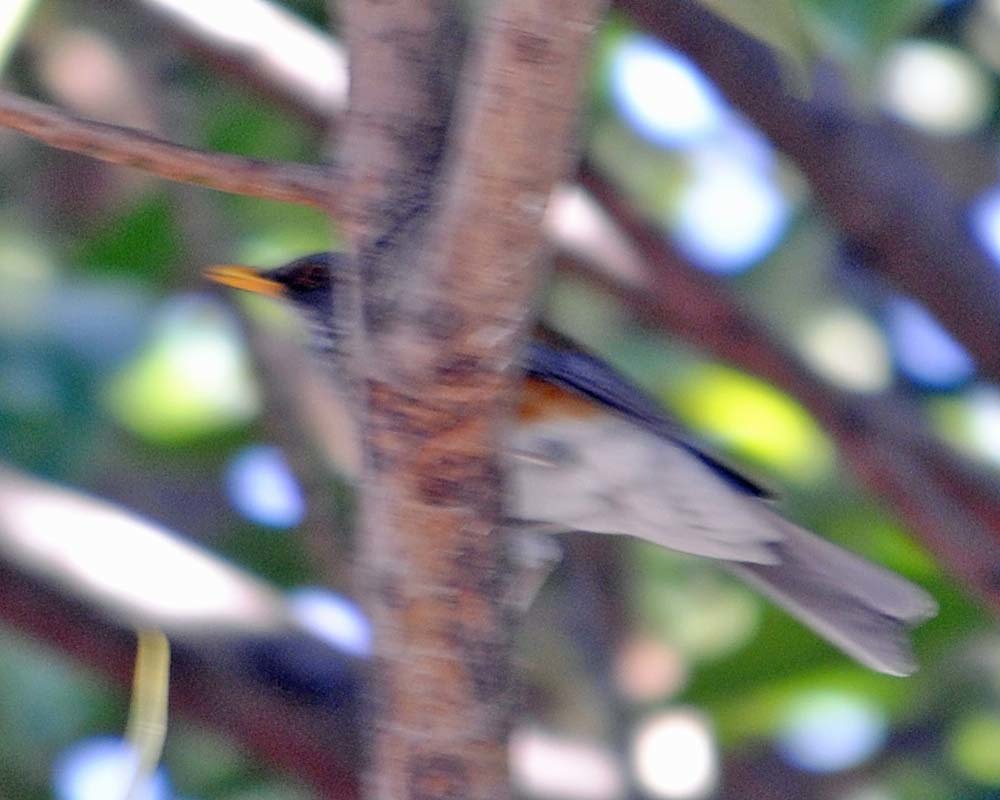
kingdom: Animalia
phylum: Chordata
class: Aves
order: Passeriformes
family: Turdidae
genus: Turdus
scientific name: Turdus rufopalliatus
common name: Rufous-backed robin
